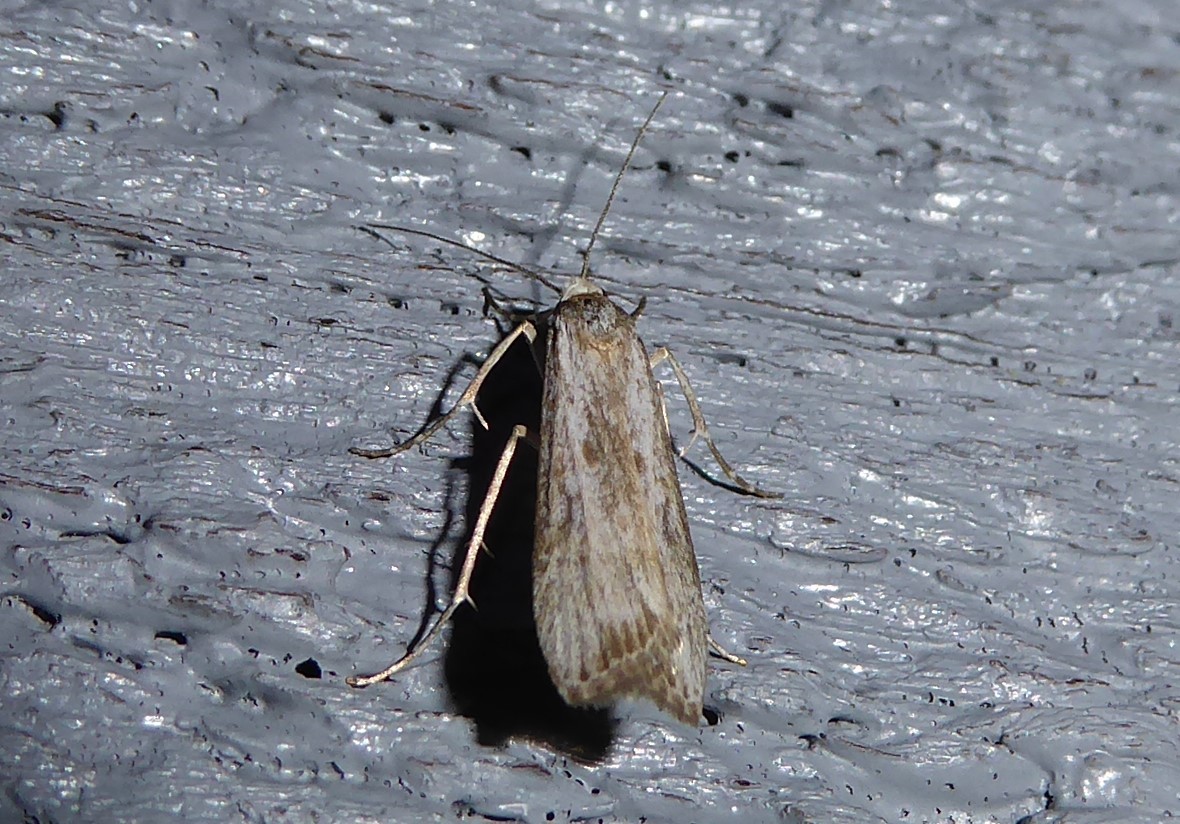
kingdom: Animalia
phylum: Arthropoda
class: Insecta
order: Lepidoptera
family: Crambidae
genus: Eudonia
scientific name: Eudonia leptalea
